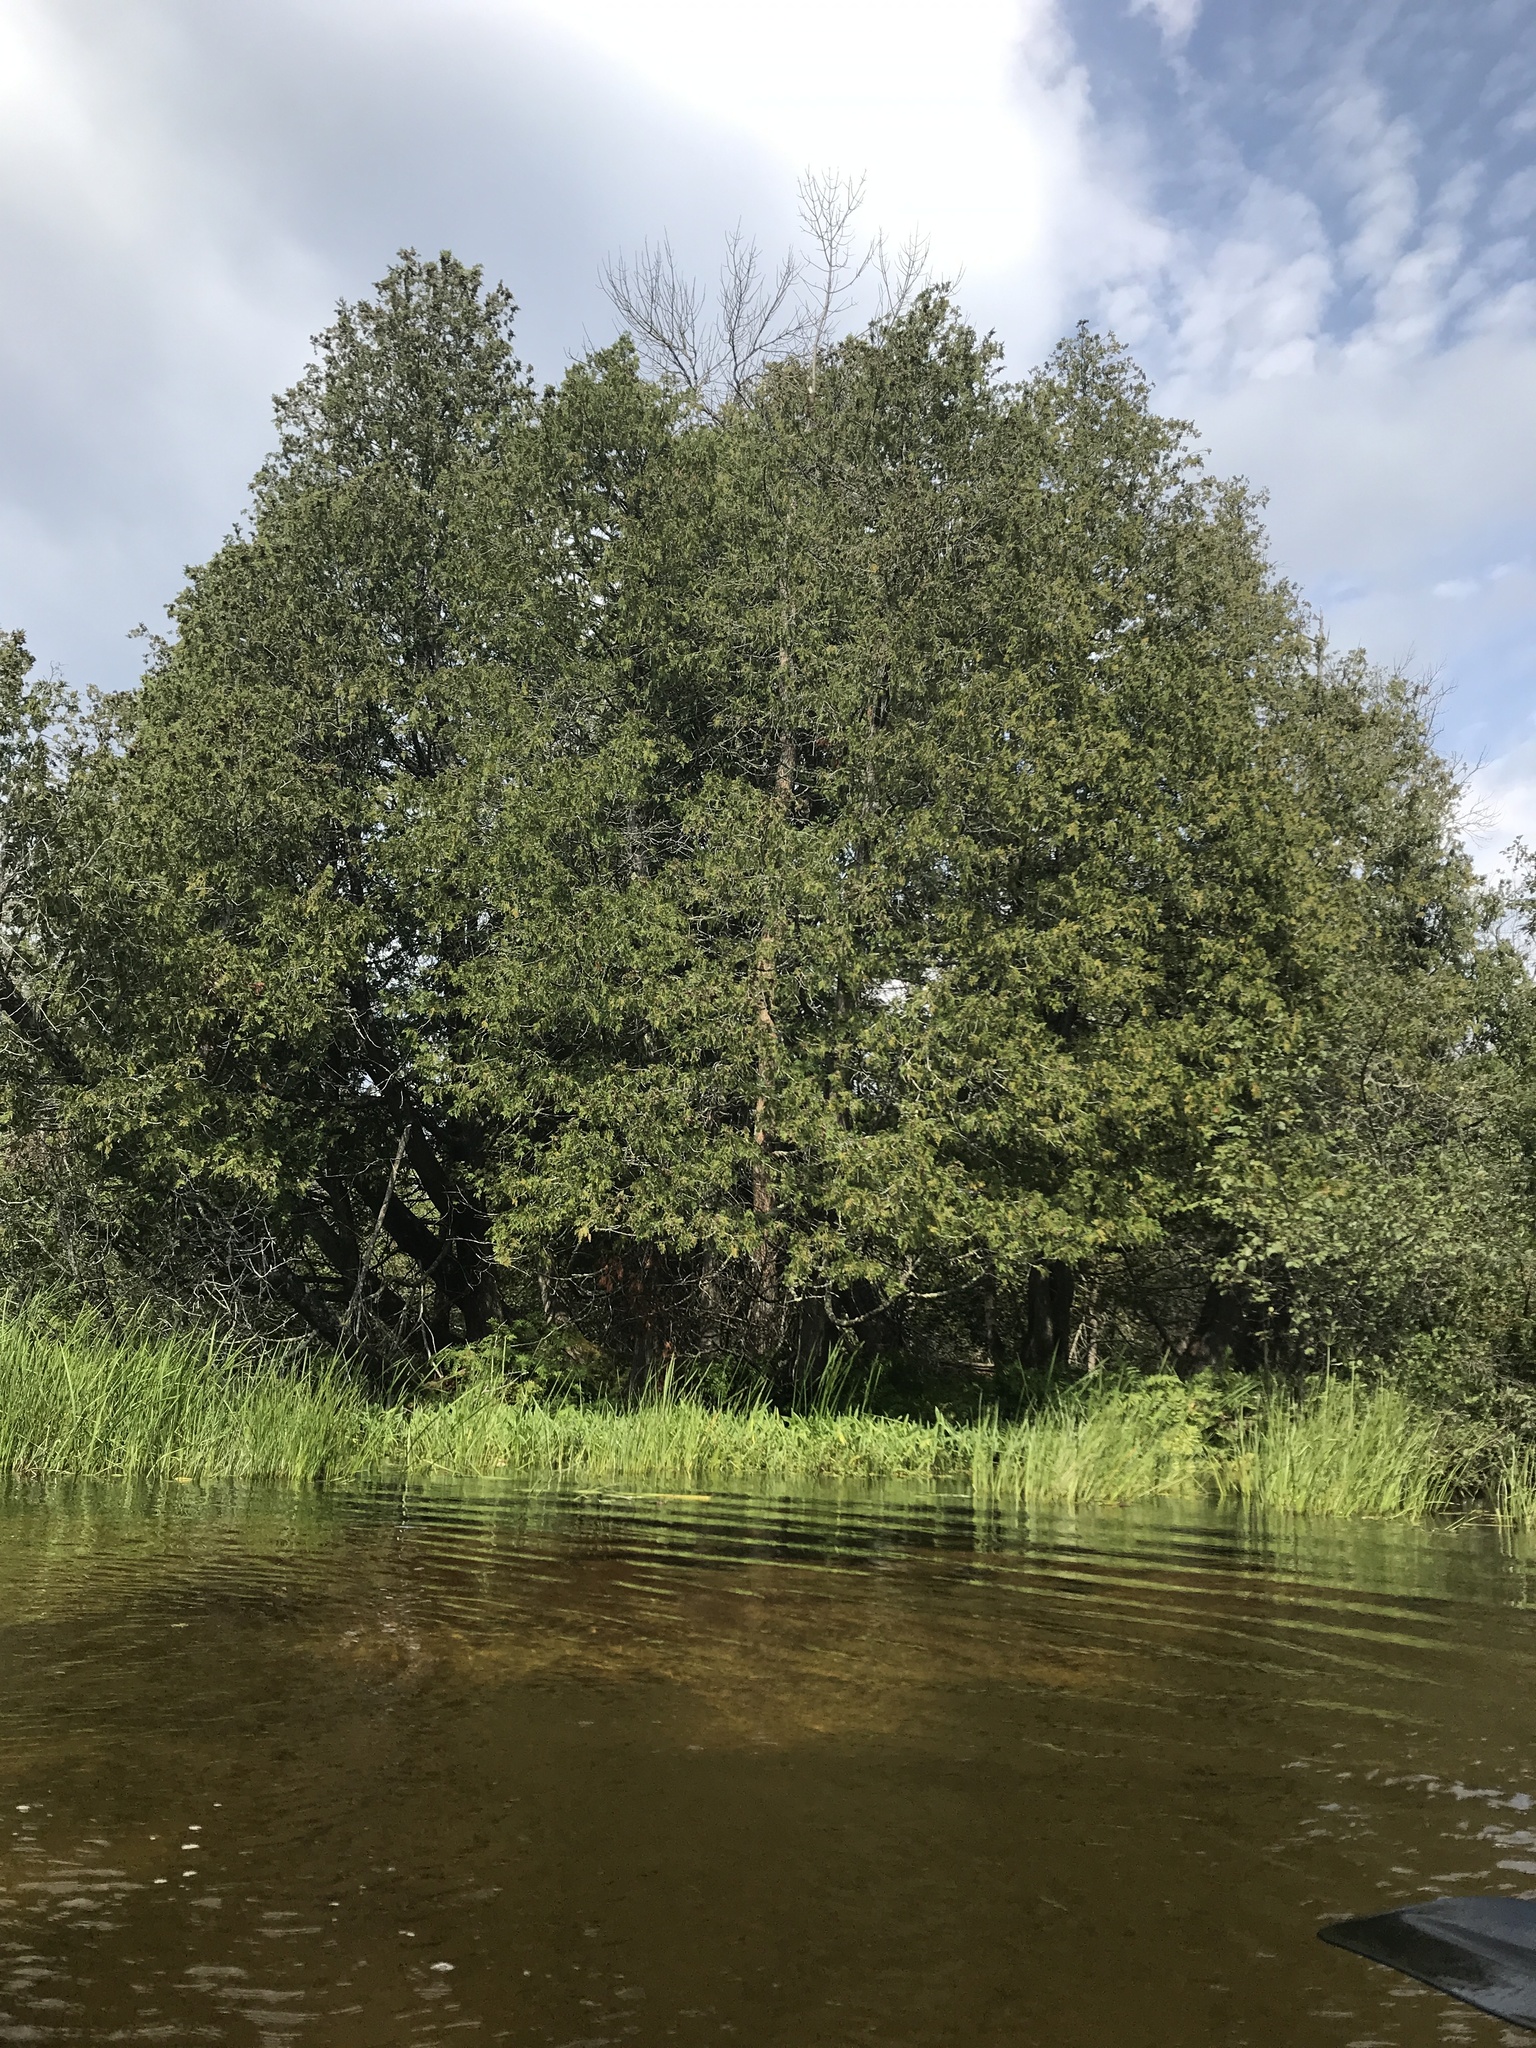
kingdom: Plantae
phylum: Tracheophyta
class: Pinopsida
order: Pinales
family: Cupressaceae
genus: Thuja
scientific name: Thuja occidentalis
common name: Northern white-cedar
